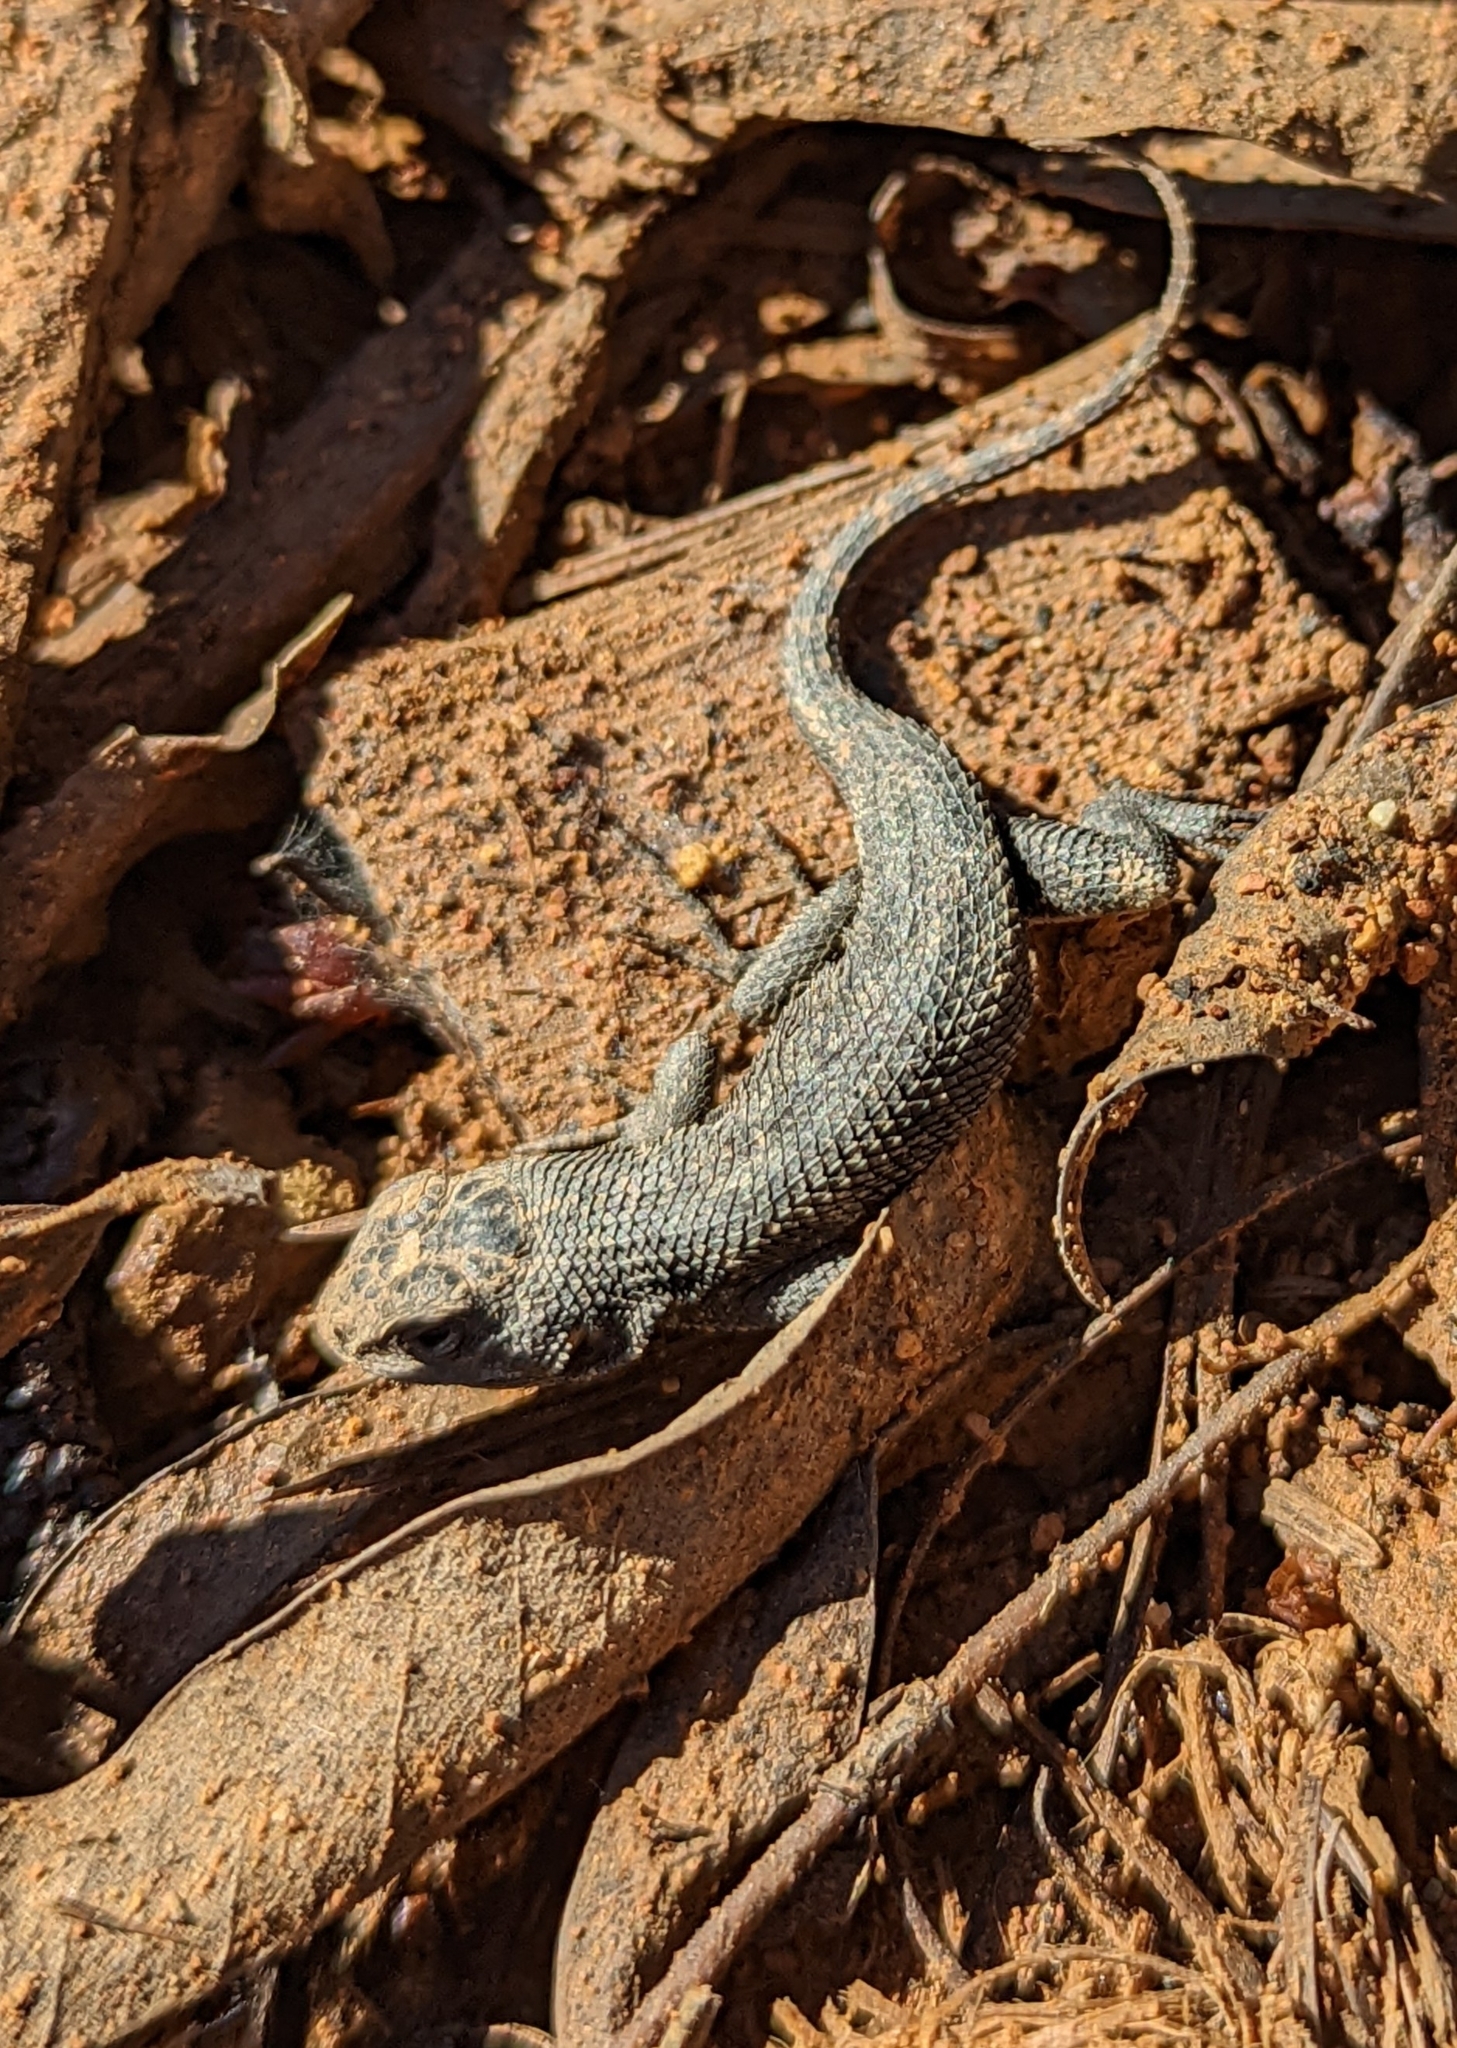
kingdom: Animalia
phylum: Chordata
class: Squamata
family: Phrynosomatidae
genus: Sceloporus
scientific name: Sceloporus occidentalis
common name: Western fence lizard
